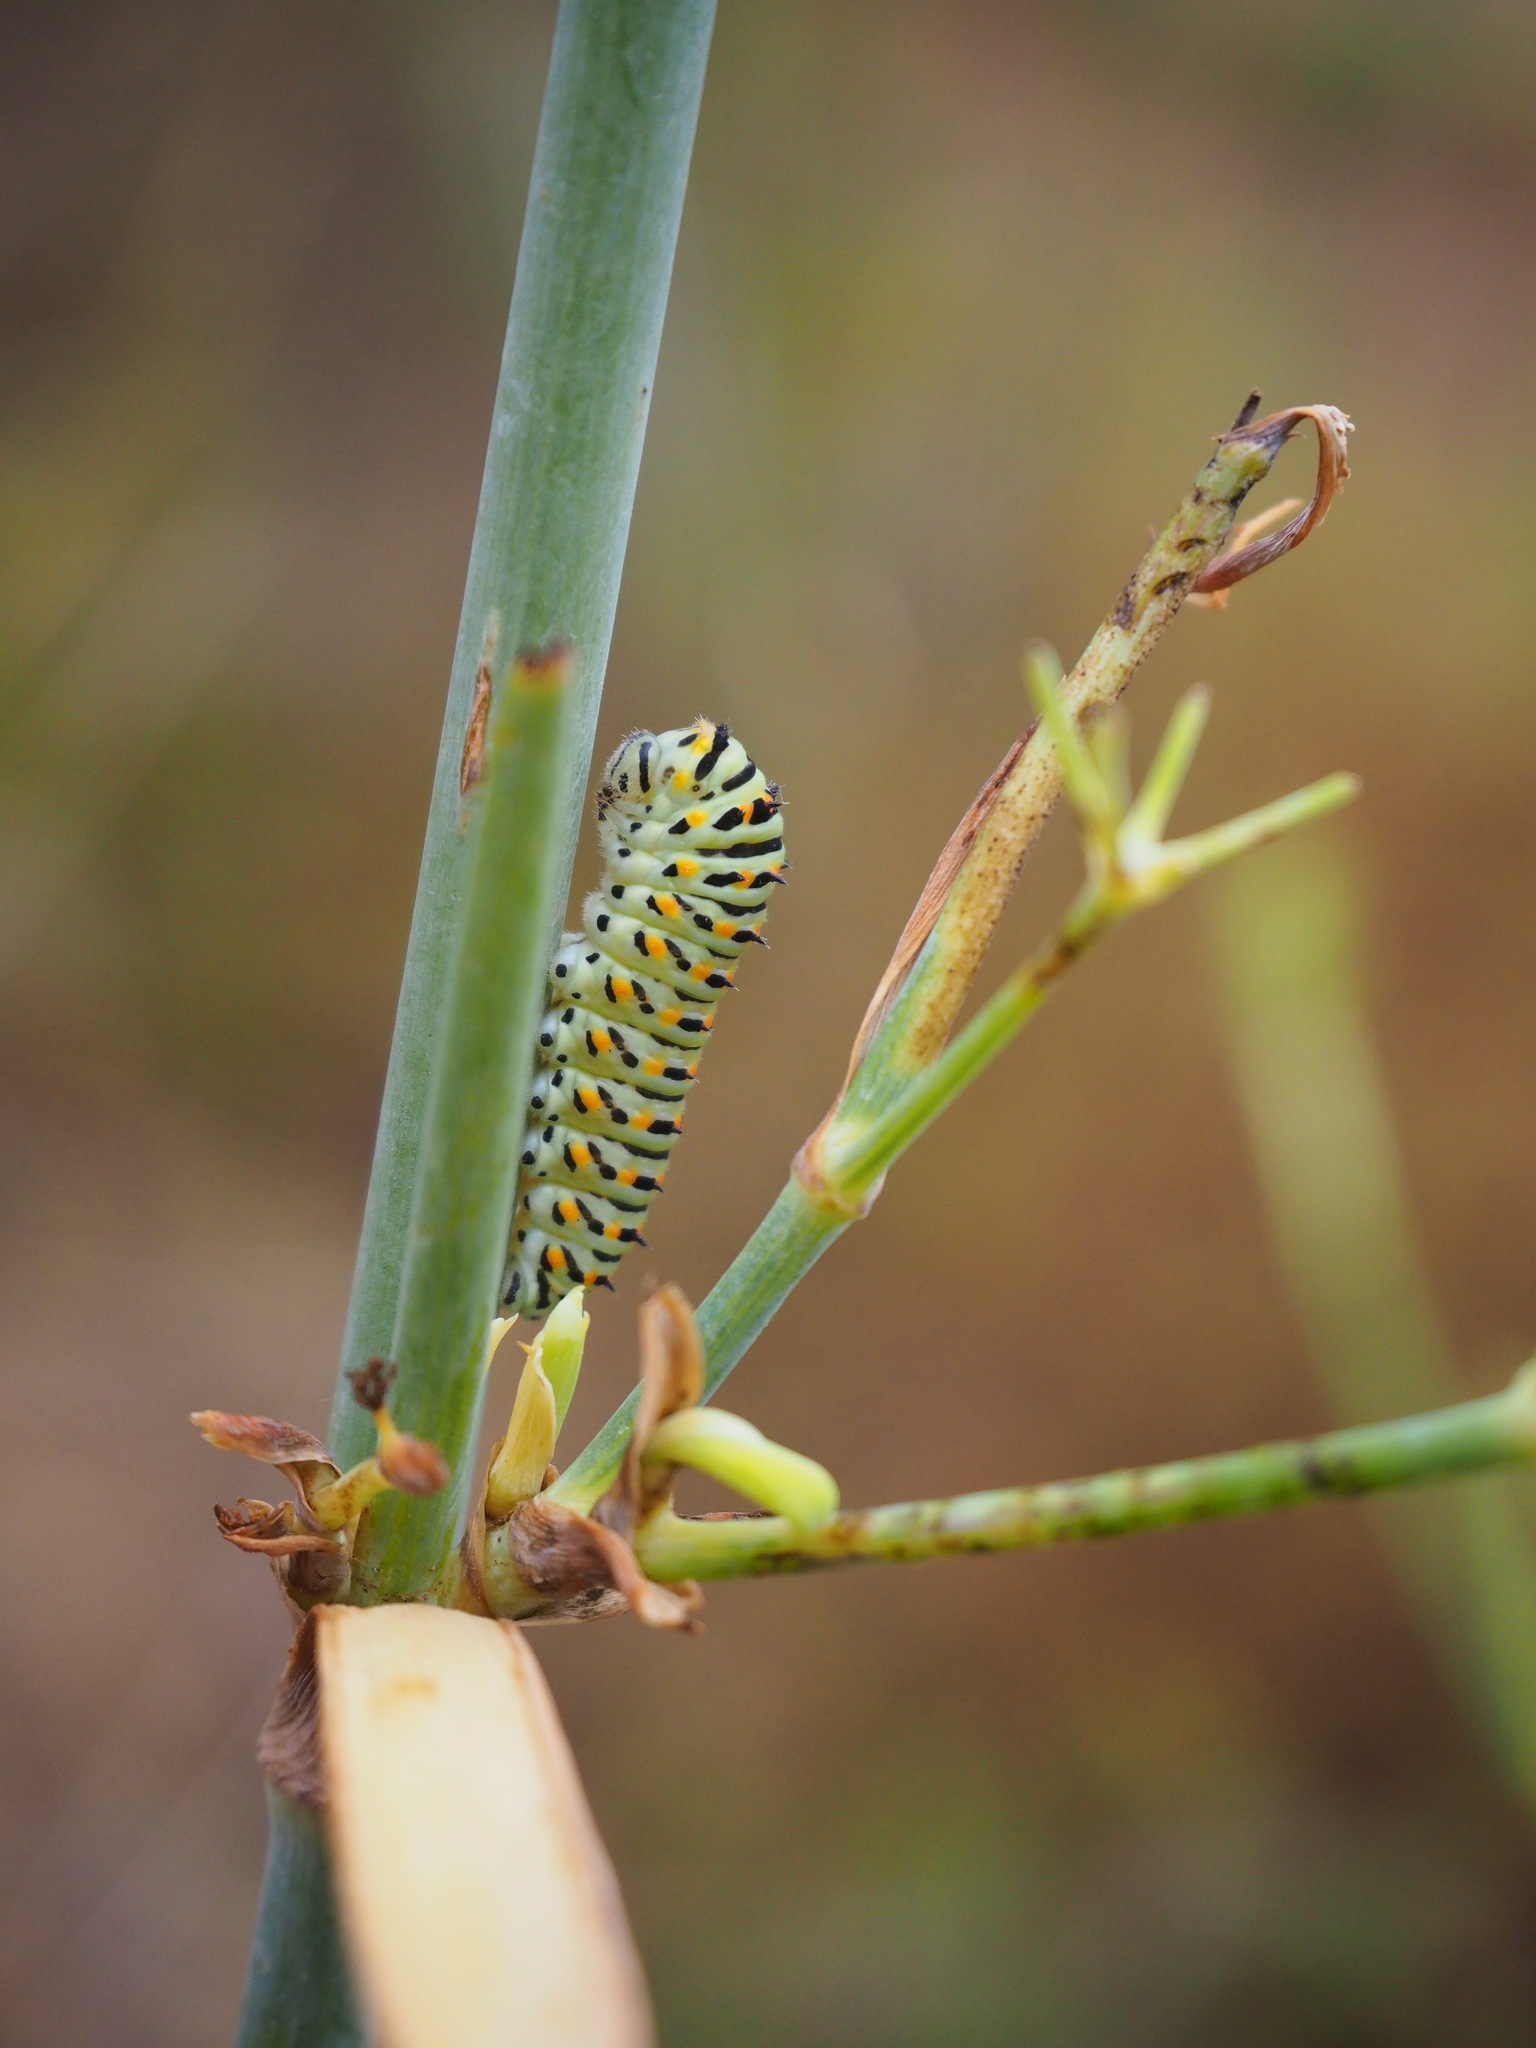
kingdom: Animalia
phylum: Arthropoda
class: Insecta
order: Lepidoptera
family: Papilionidae
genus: Papilio
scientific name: Papilio machaon
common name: Swallowtail
